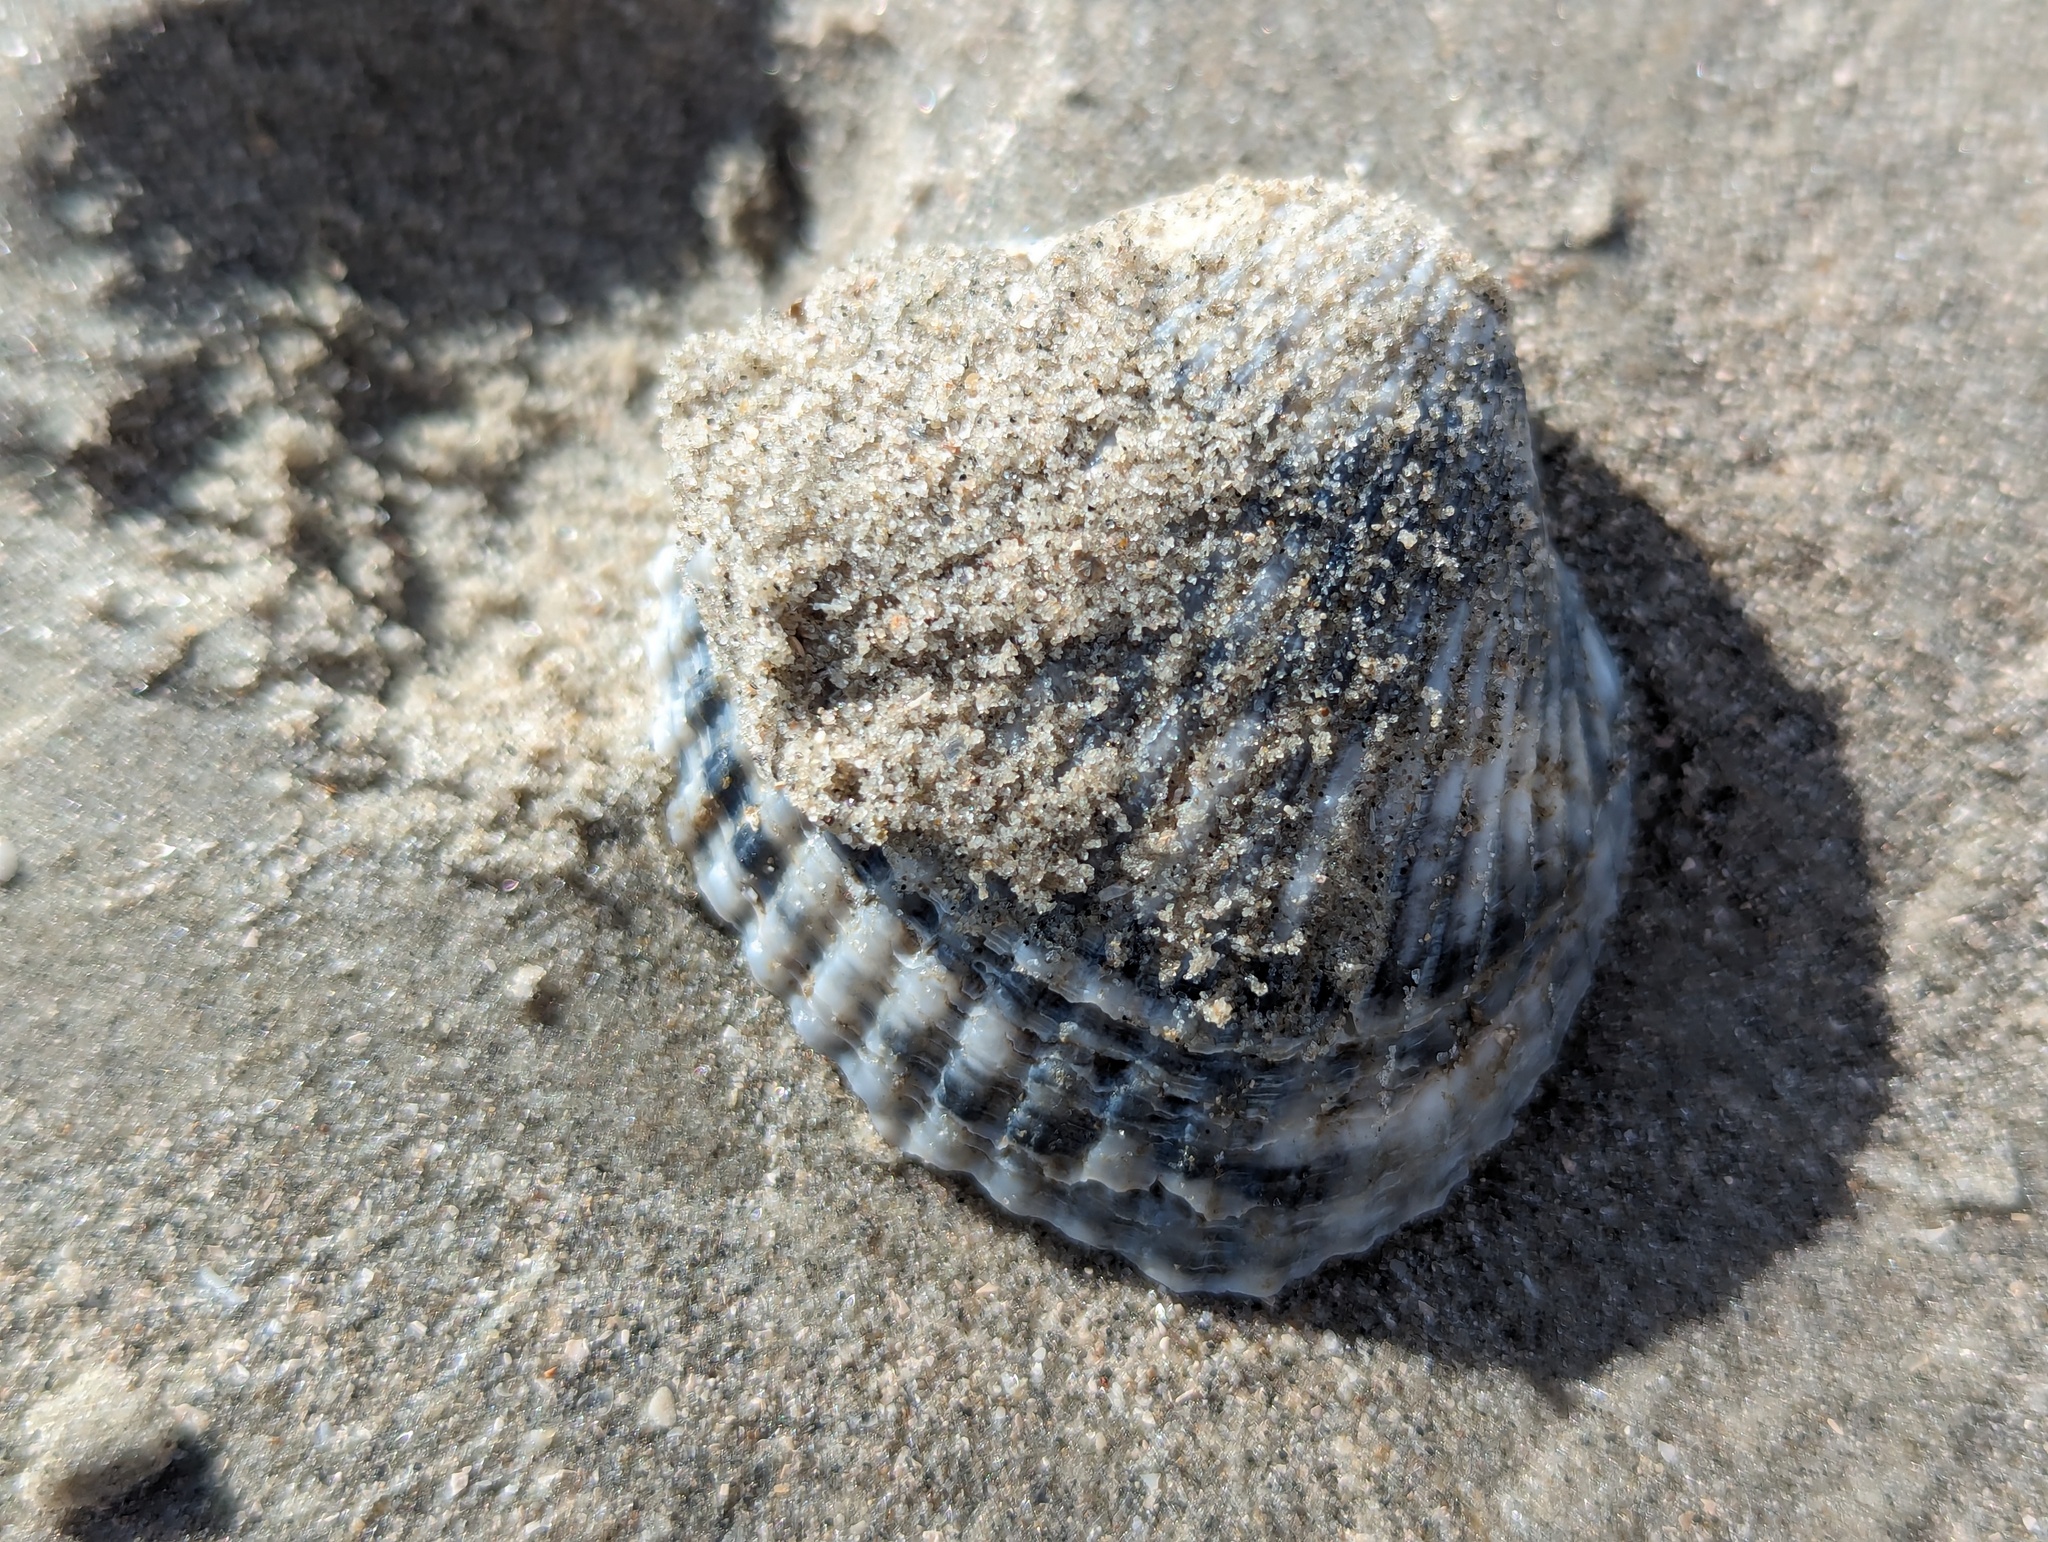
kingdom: Animalia
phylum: Mollusca
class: Bivalvia
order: Arcida
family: Arcidae
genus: Lunarca
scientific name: Lunarca ovalis
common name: Blood ark
